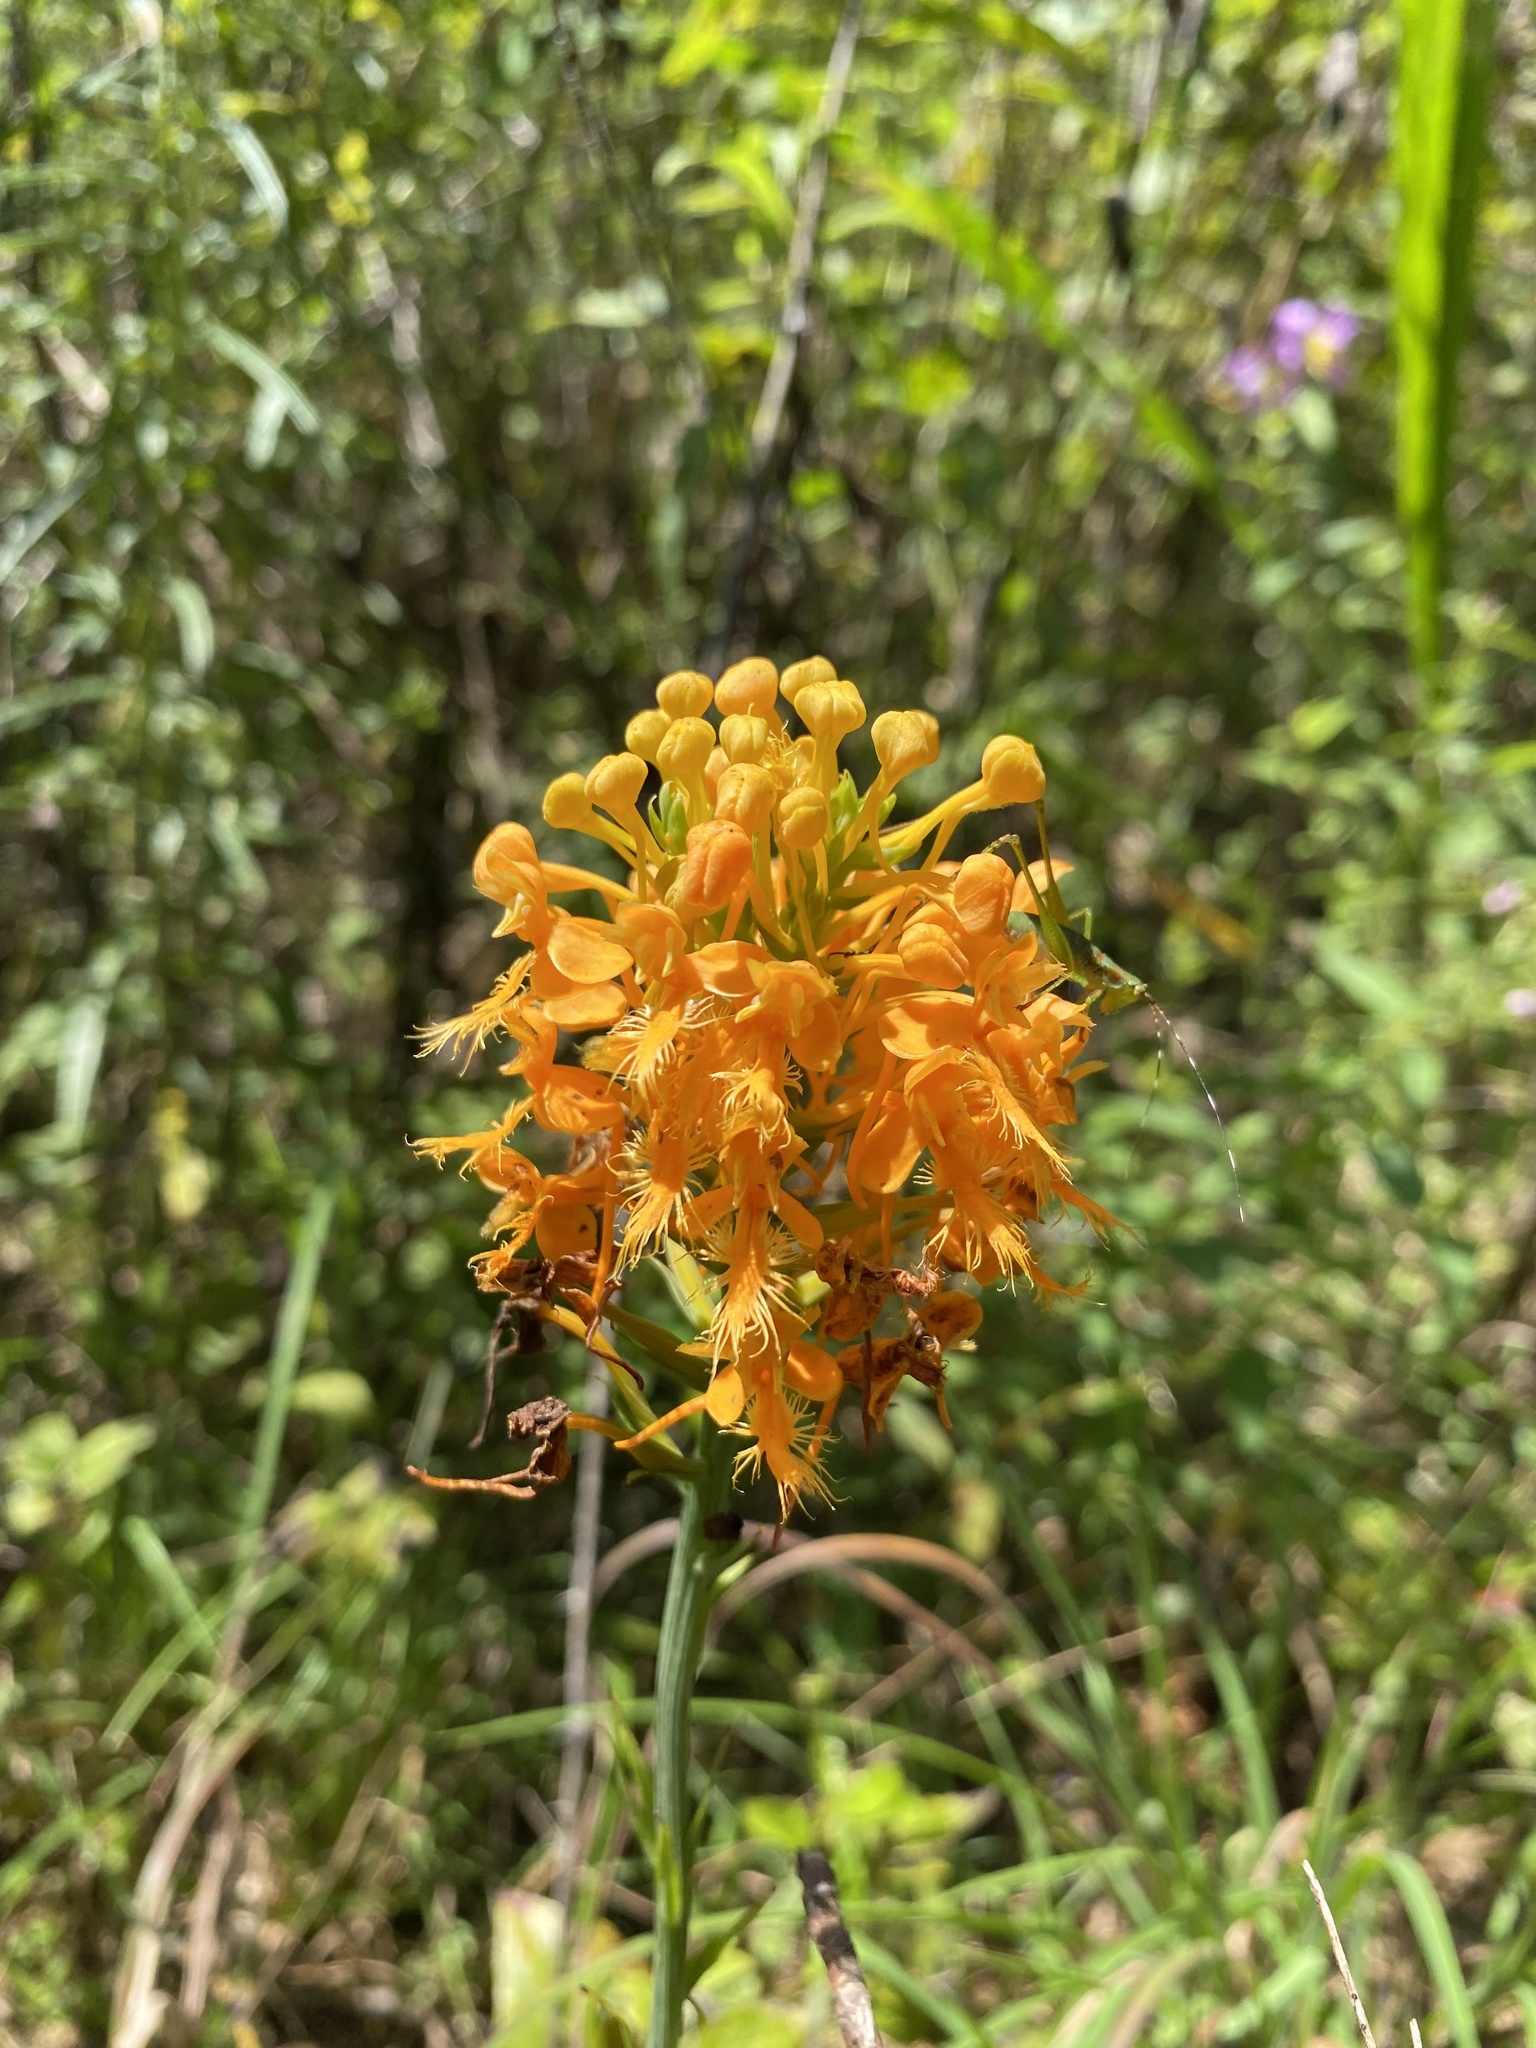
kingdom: Plantae
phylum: Tracheophyta
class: Liliopsida
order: Asparagales
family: Orchidaceae
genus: Platanthera
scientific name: Platanthera ciliaris
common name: Yellow fringed orchid
